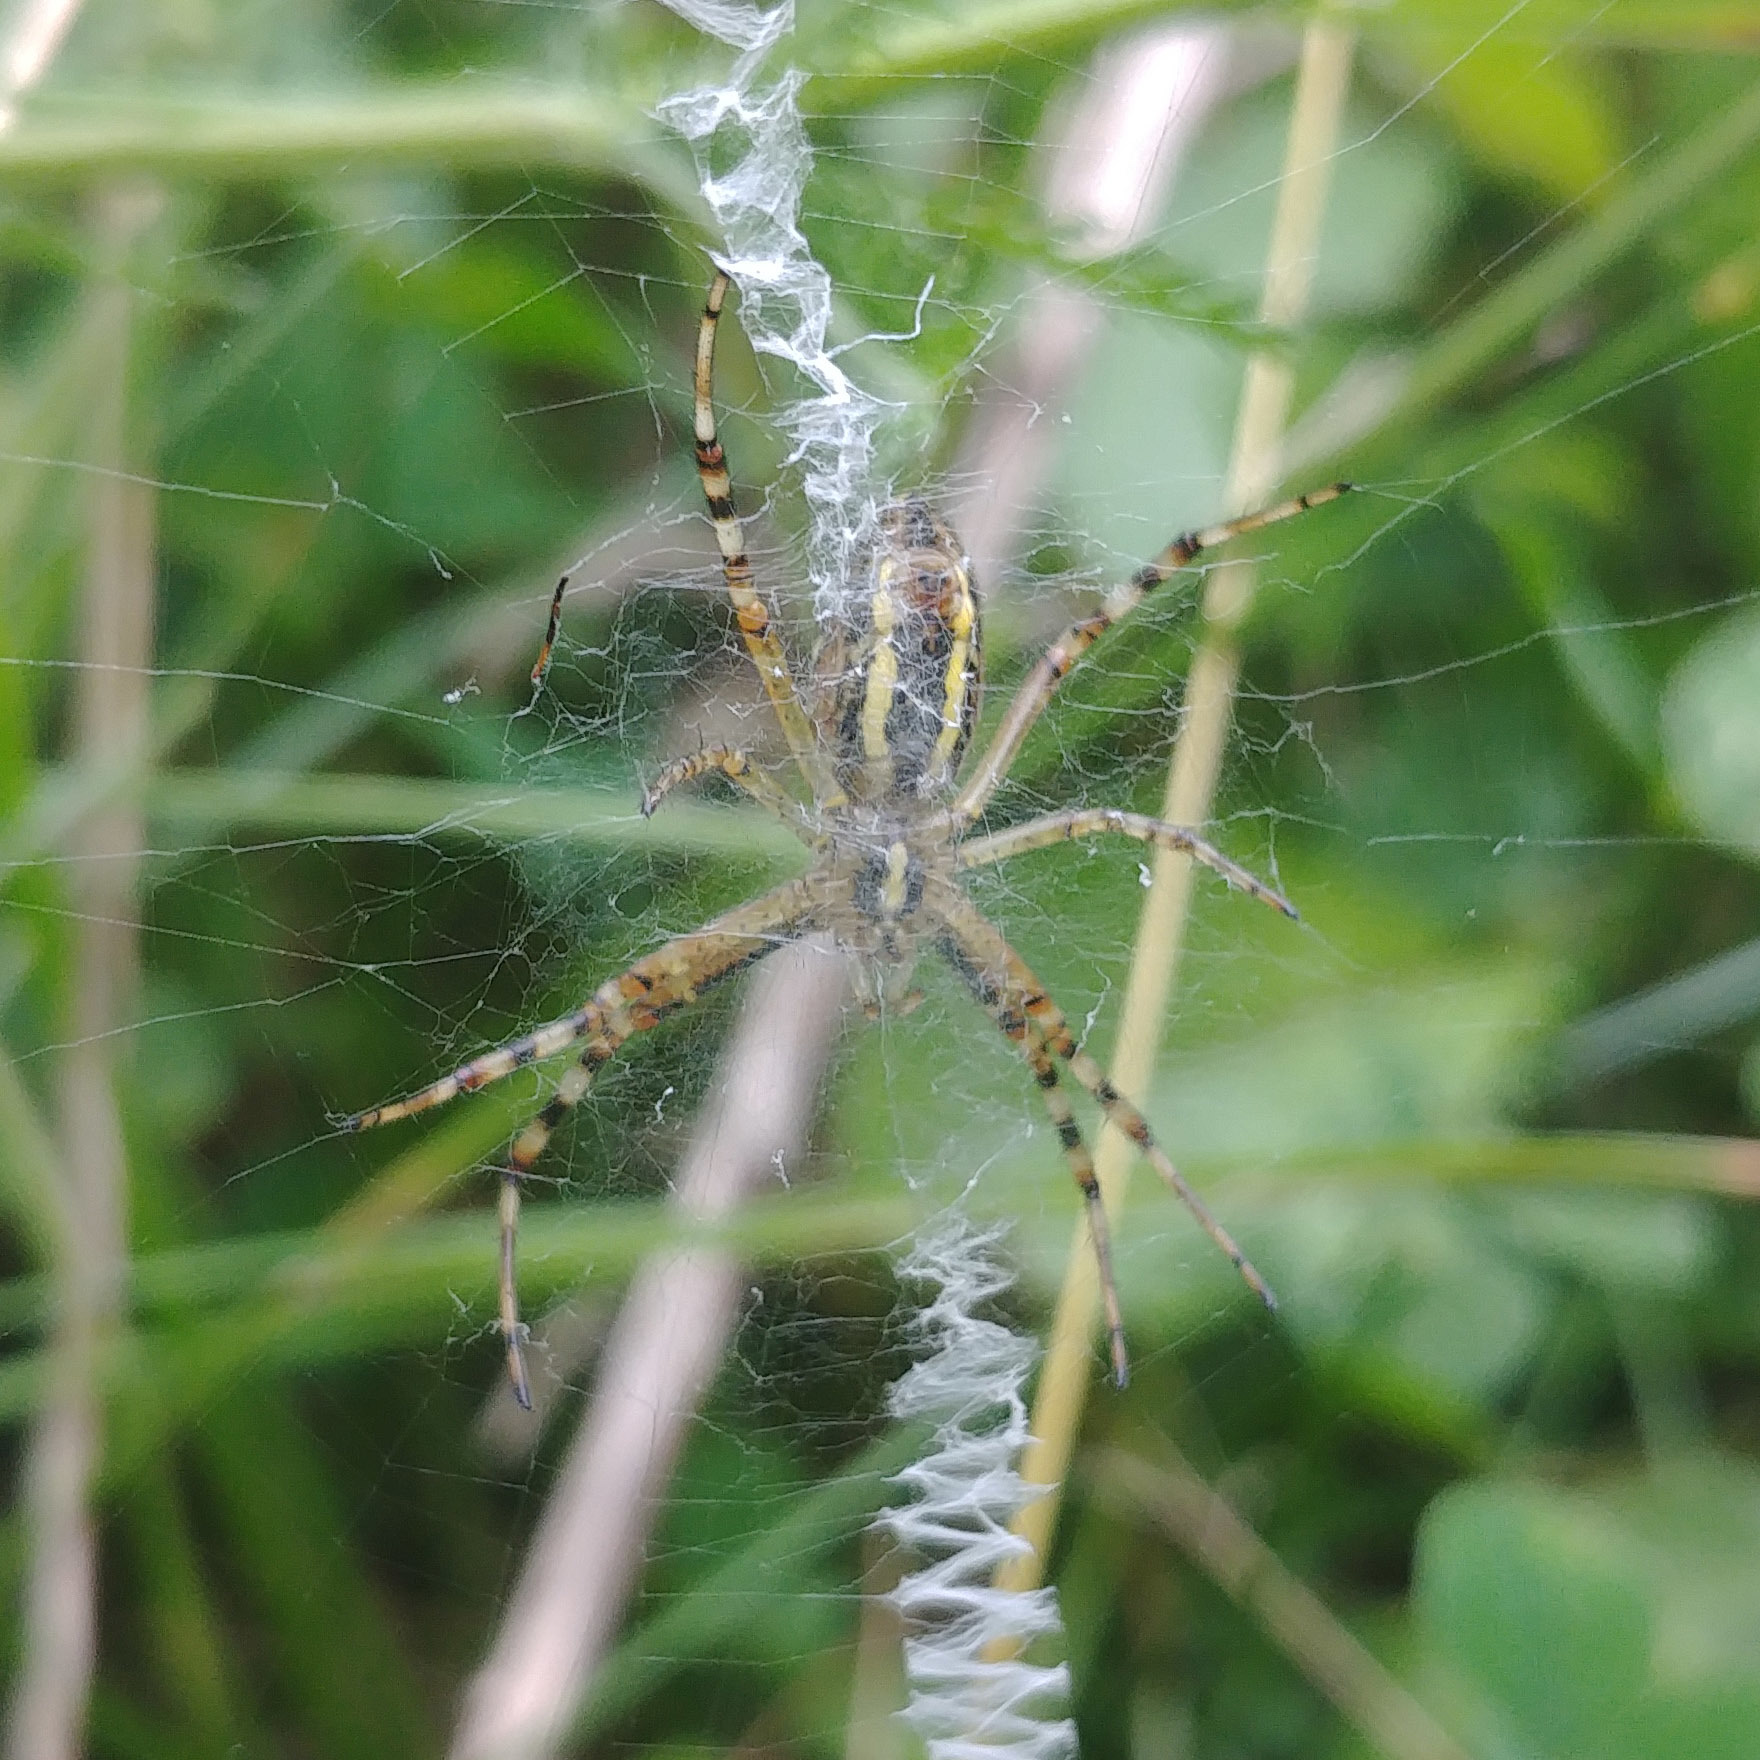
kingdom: Animalia
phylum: Arthropoda
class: Arachnida
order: Araneae
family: Araneidae
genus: Argiope
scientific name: Argiope bruennichi
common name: Wasp spider
